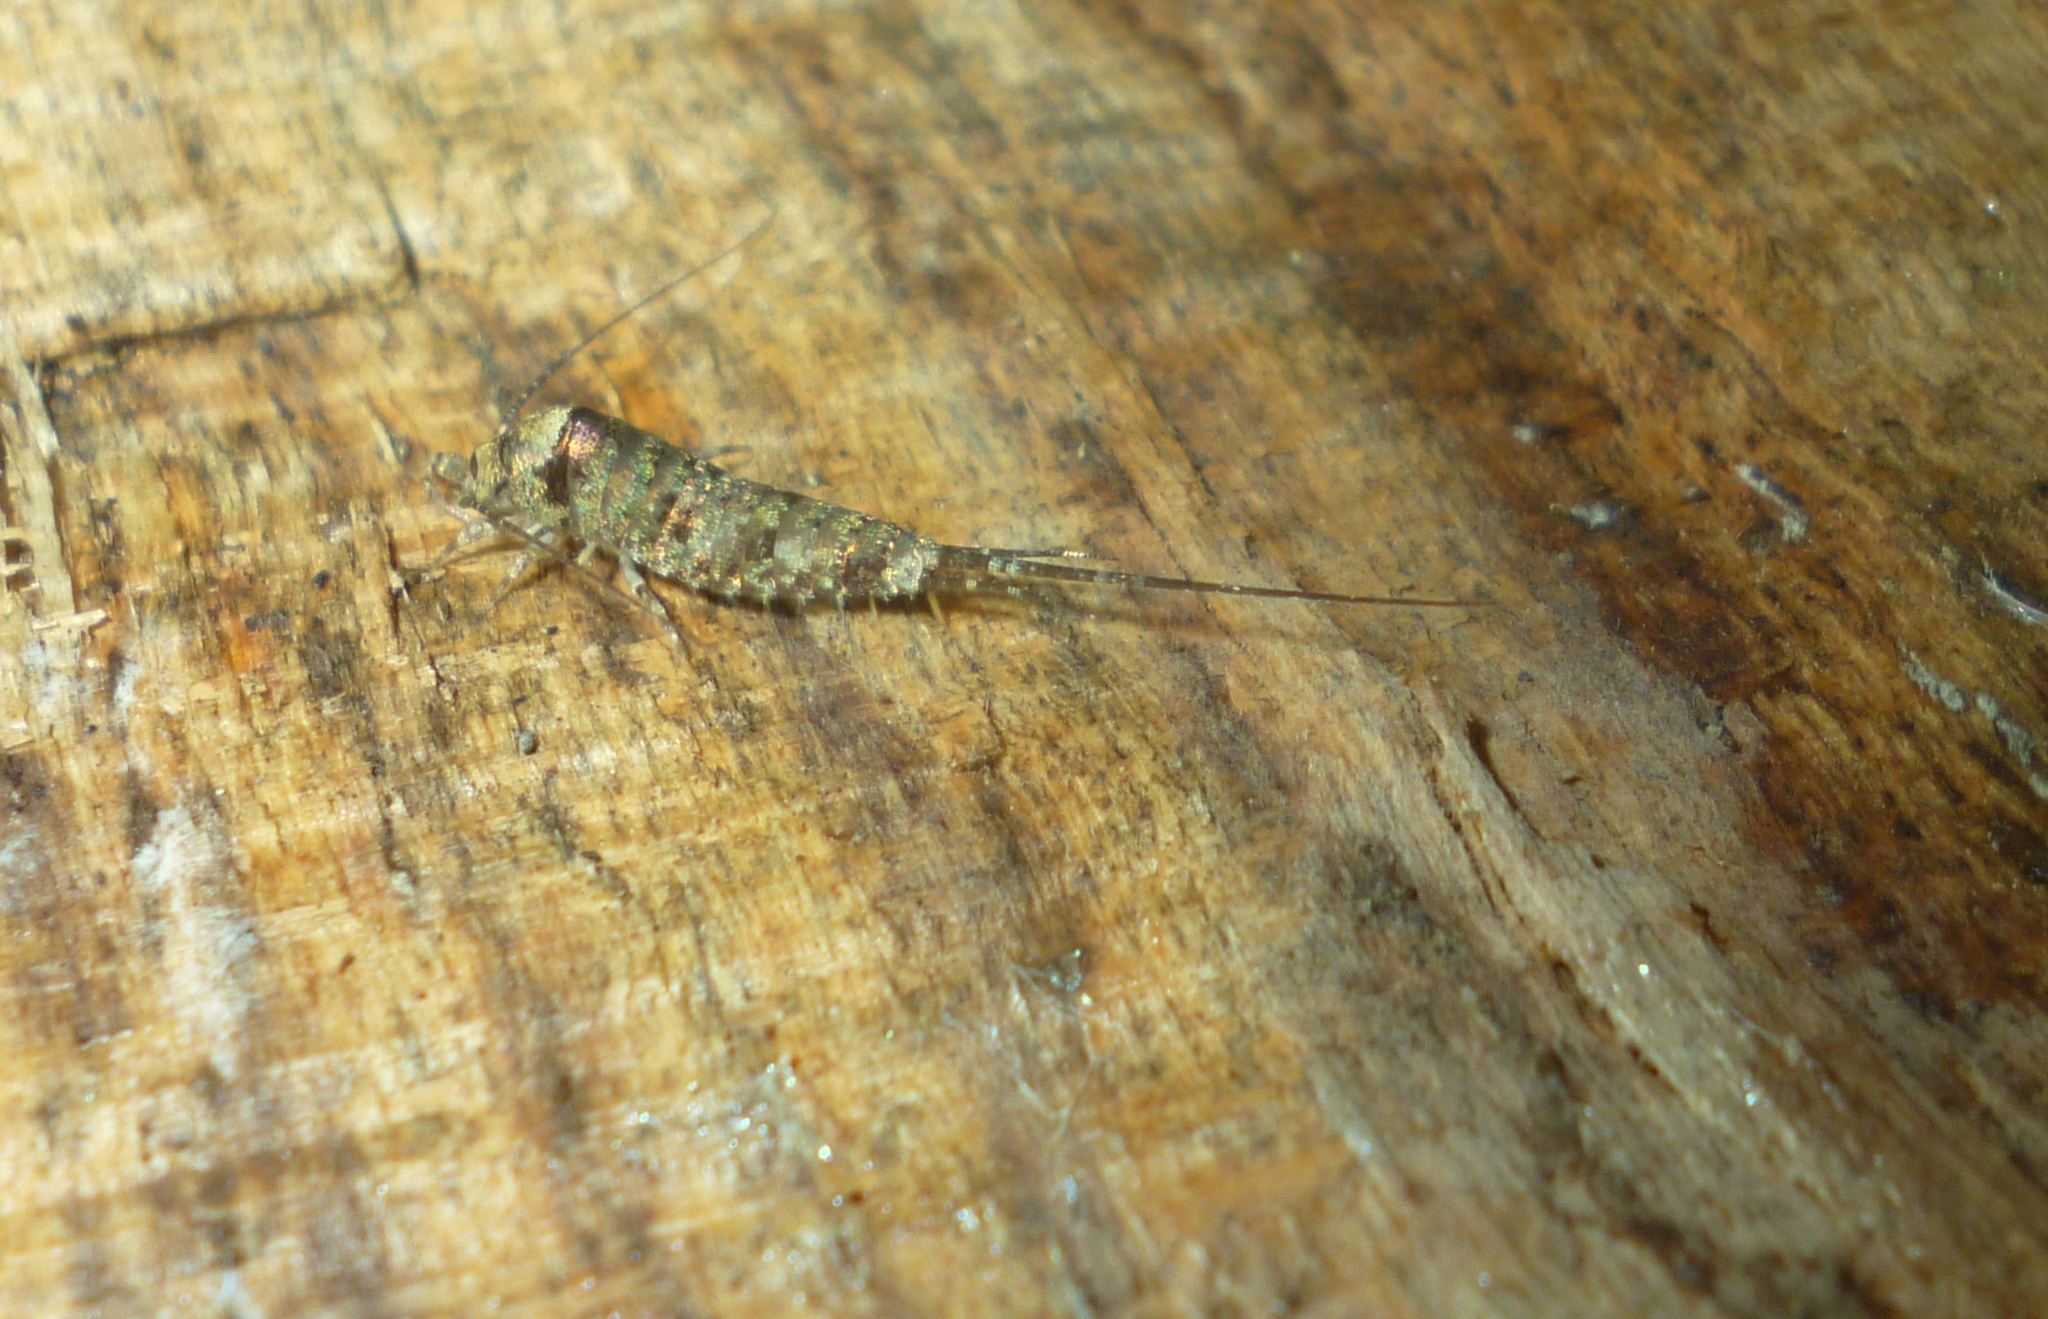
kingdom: Animalia
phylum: Arthropoda
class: Insecta
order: Archaeognatha
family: Machilidae
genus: Trigoniophthalmus
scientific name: Trigoniophthalmus alternatus
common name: Jumping bristletail
